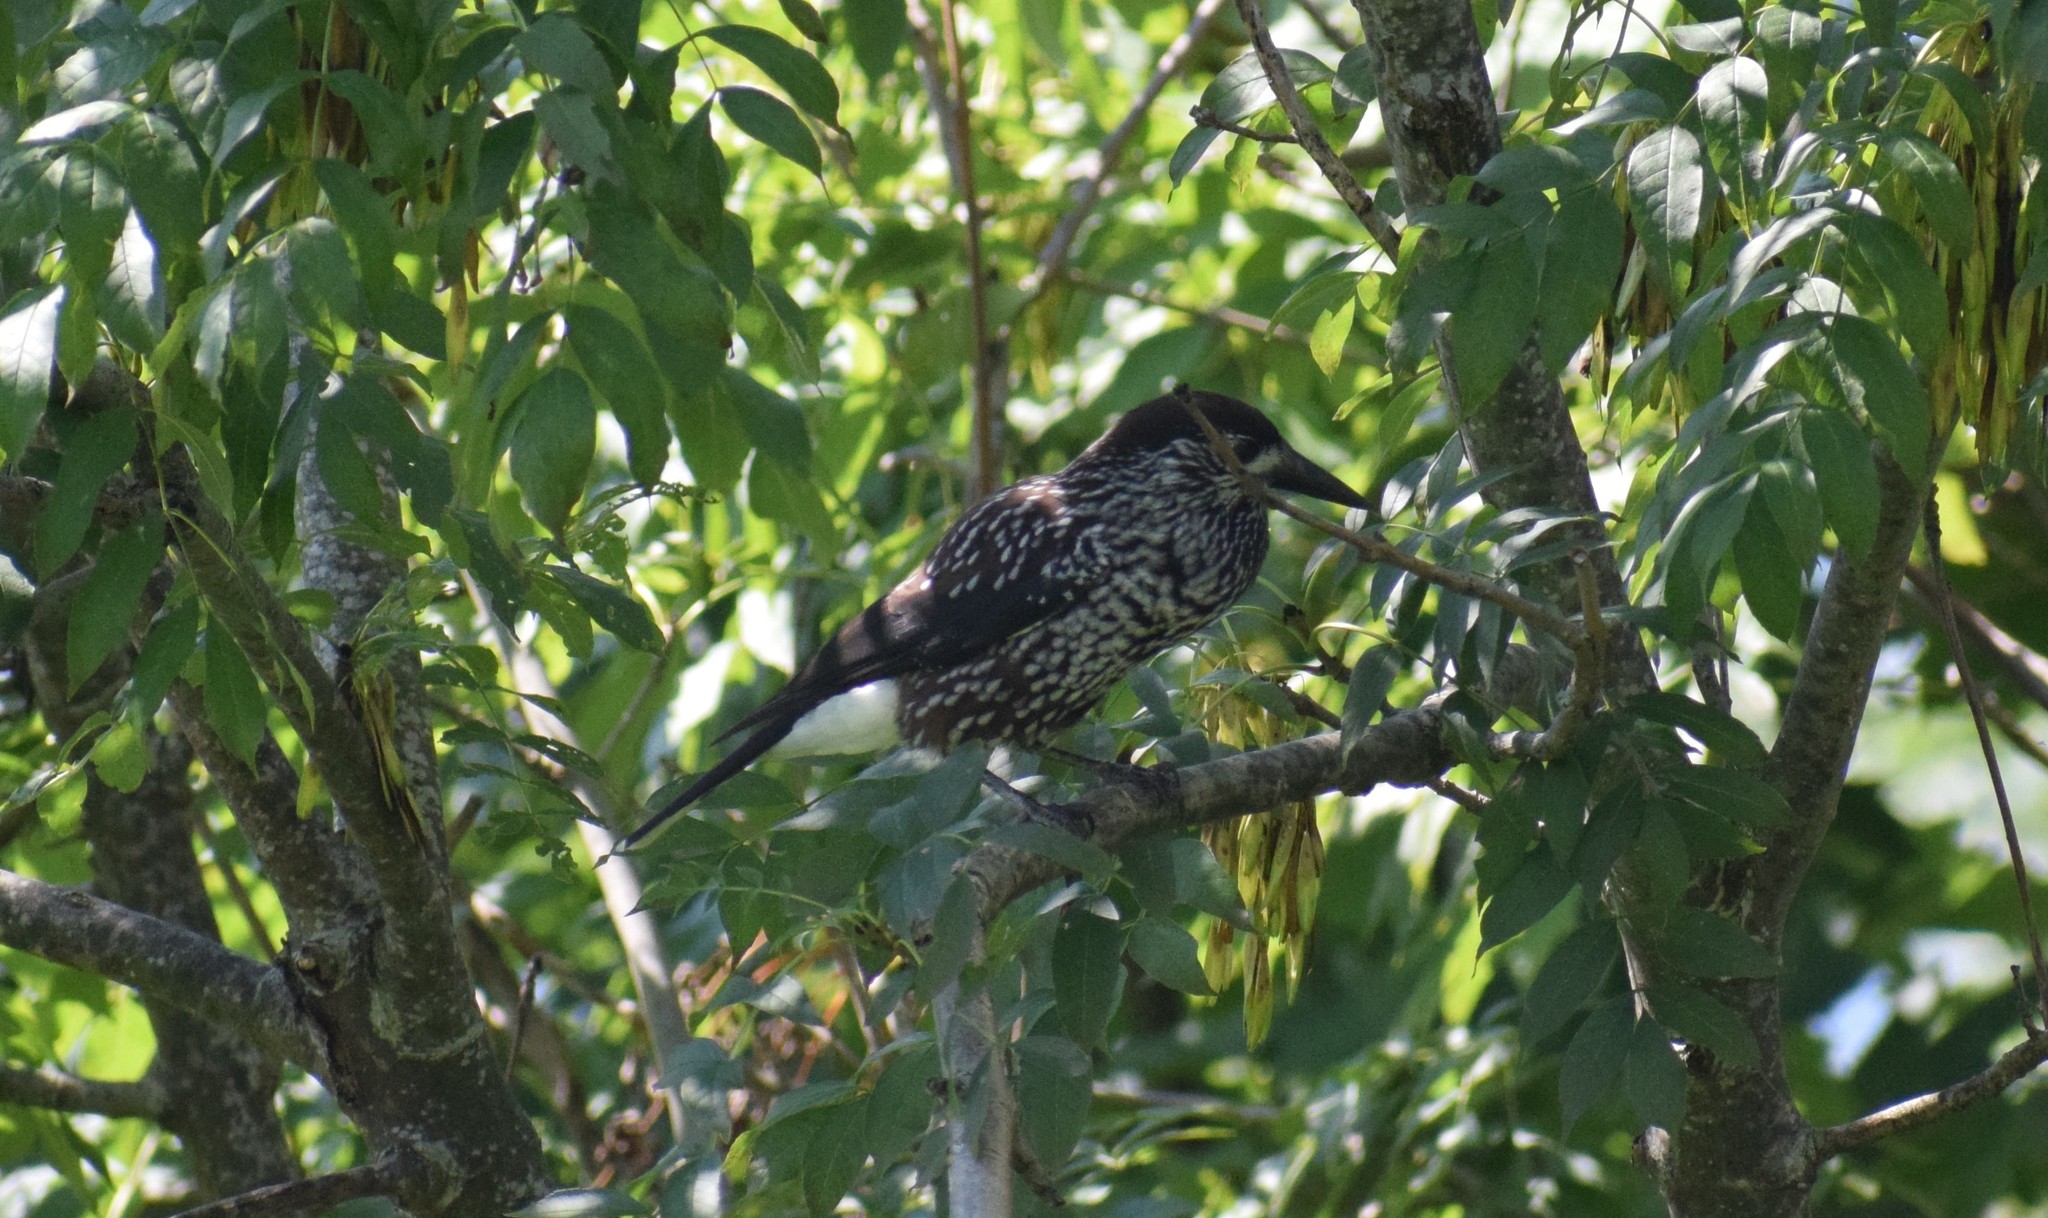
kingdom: Animalia
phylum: Chordata
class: Aves
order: Passeriformes
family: Corvidae
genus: Nucifraga
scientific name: Nucifraga caryocatactes
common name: Spotted nutcracker
